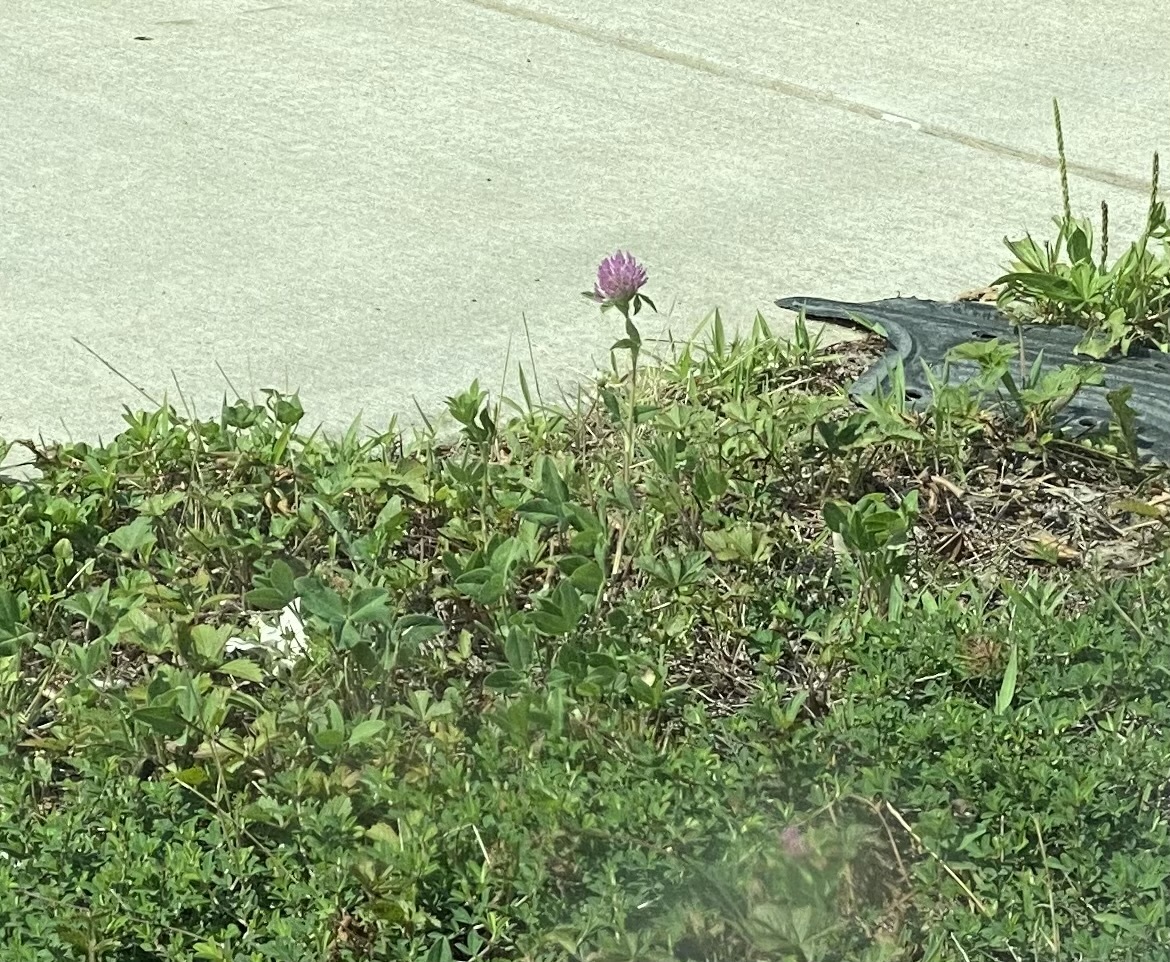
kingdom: Plantae
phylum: Tracheophyta
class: Magnoliopsida
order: Fabales
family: Fabaceae
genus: Trifolium
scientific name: Trifolium pratense
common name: Red clover
